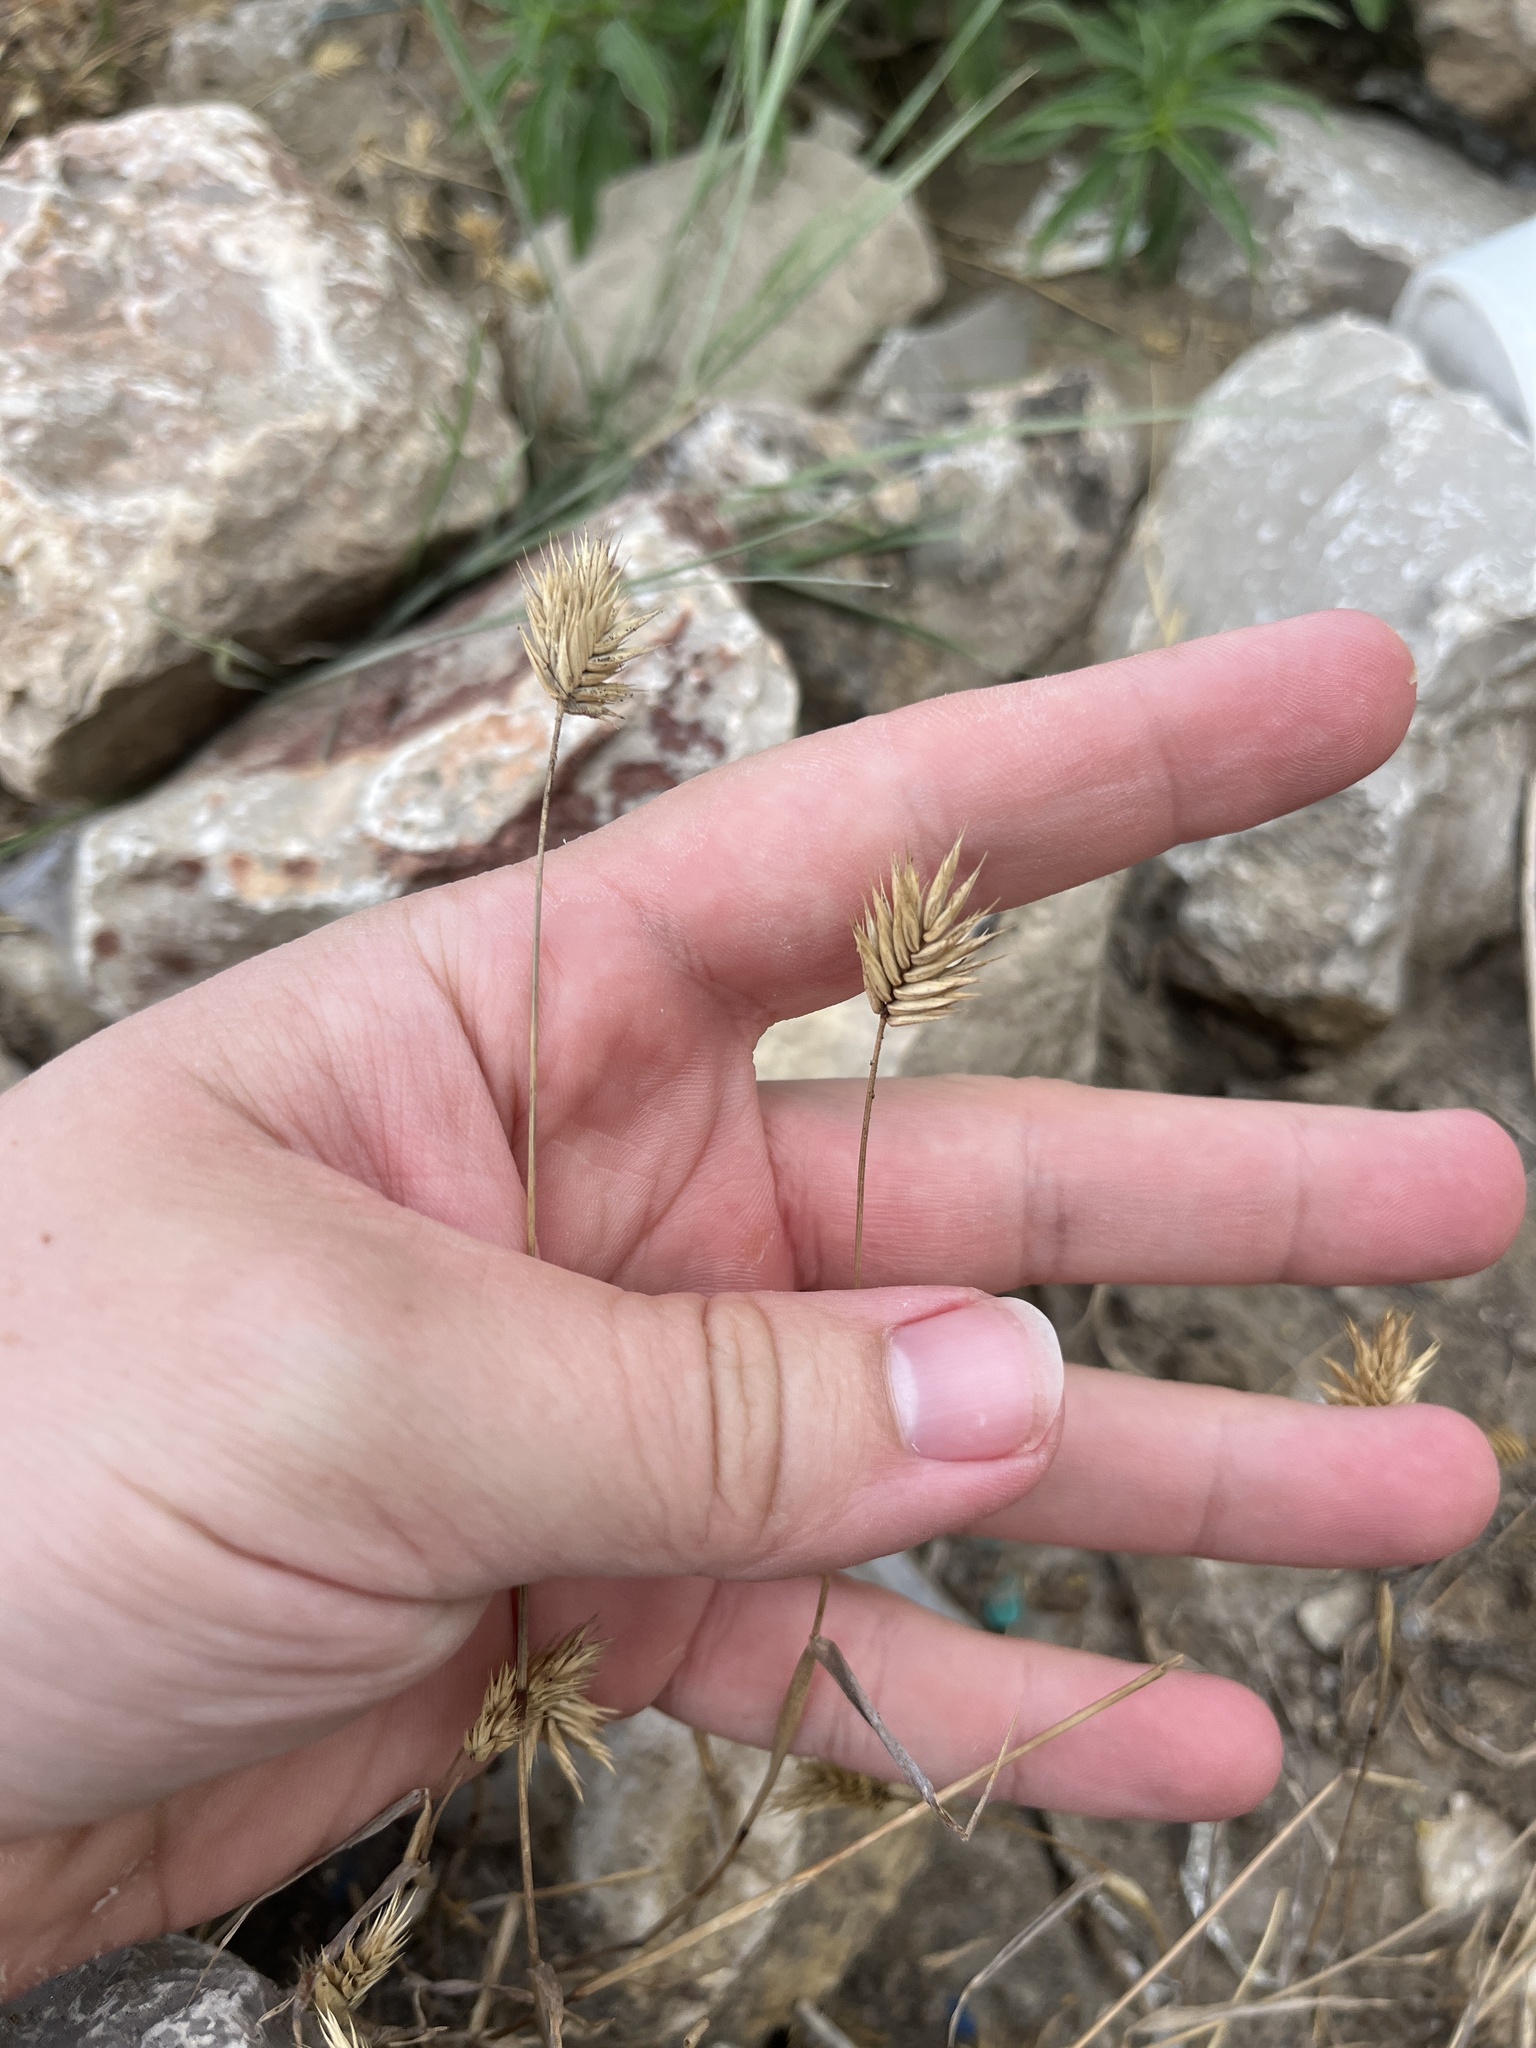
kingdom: Plantae
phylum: Tracheophyta
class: Liliopsida
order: Poales
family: Poaceae
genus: Eremopyrum
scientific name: Eremopyrum triticeum
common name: Annual wheatgrass
